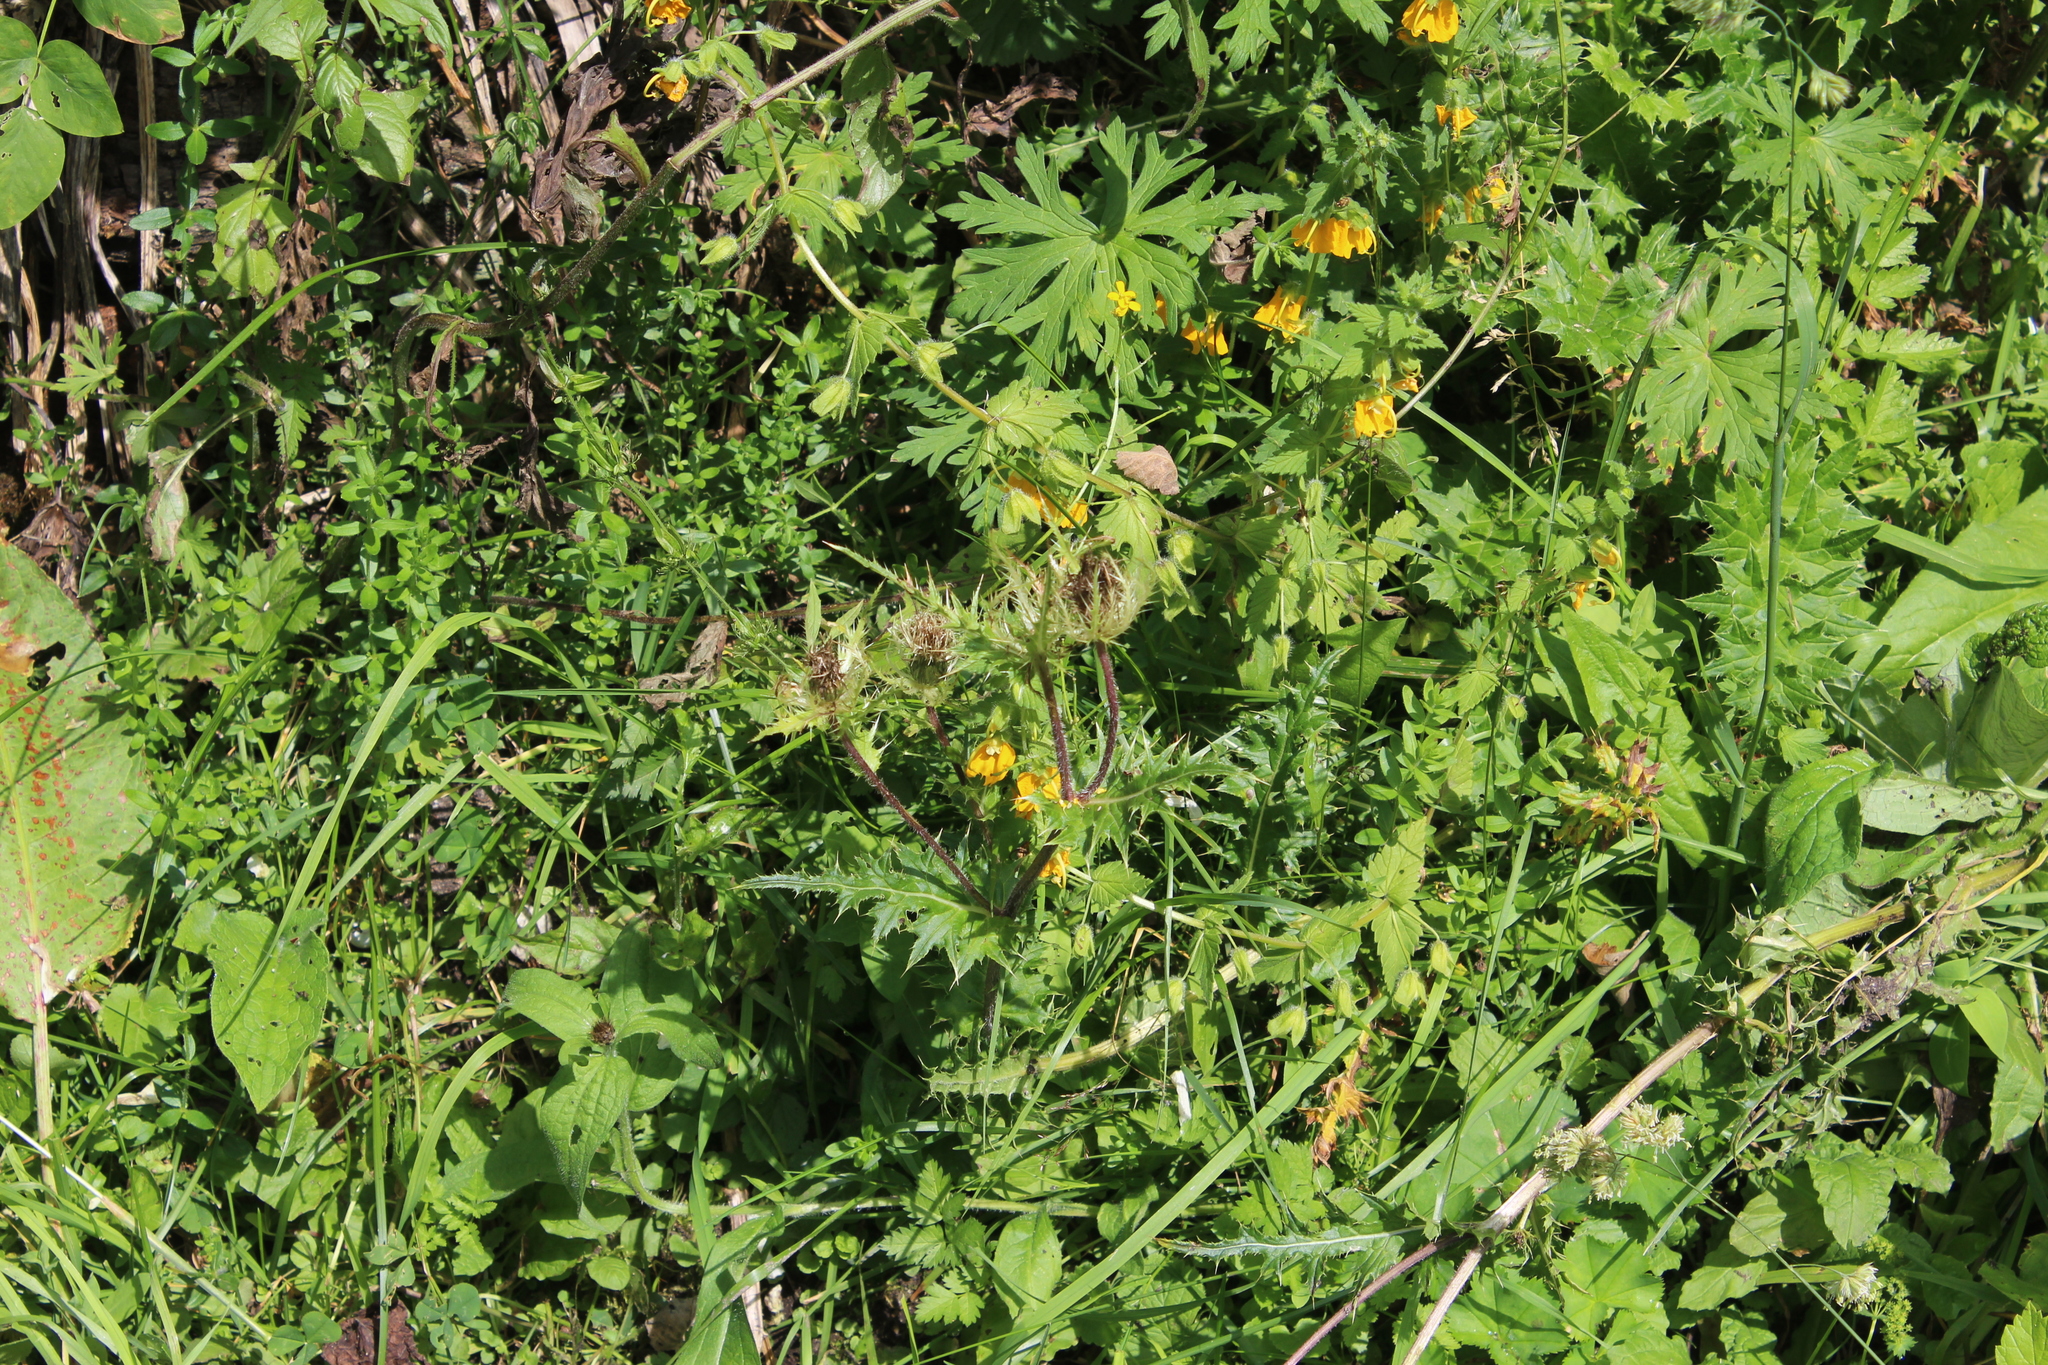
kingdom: Plantae
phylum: Tracheophyta
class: Magnoliopsida
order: Asterales
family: Asteraceae
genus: Cirsium
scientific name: Cirsium obvallatum
